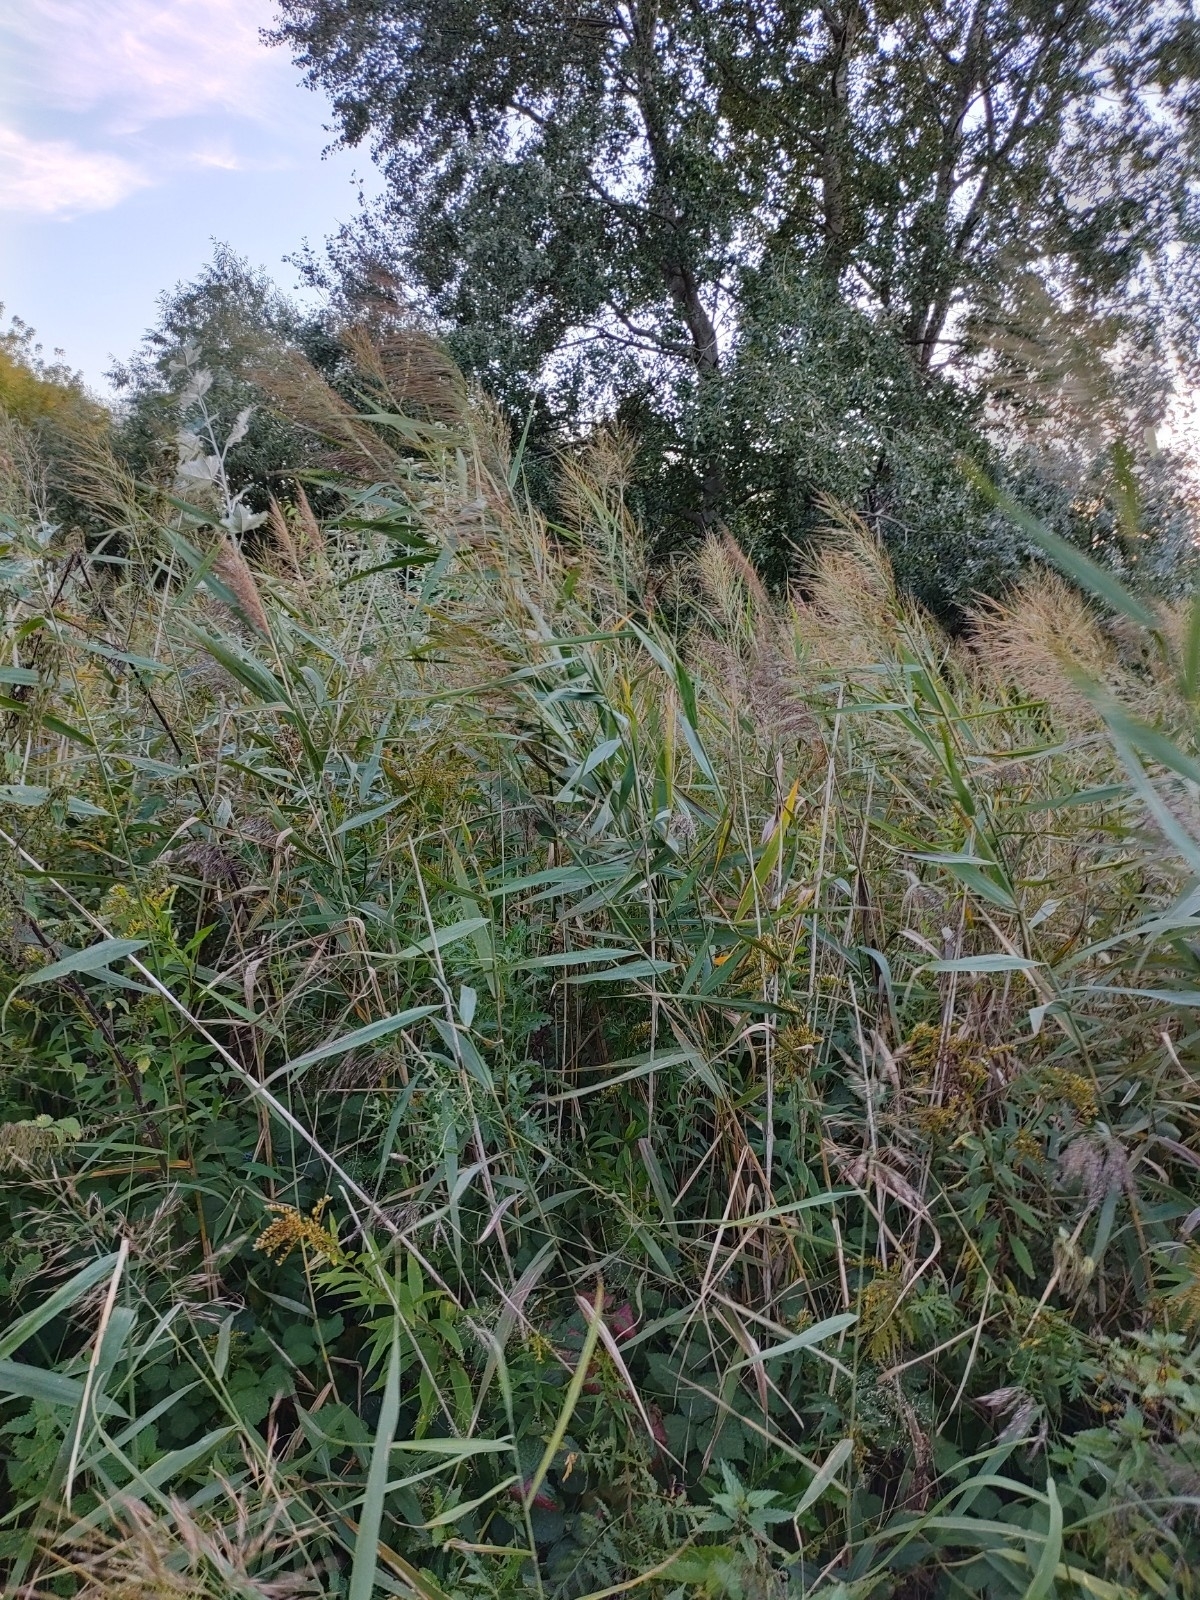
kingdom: Plantae
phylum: Tracheophyta
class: Liliopsida
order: Poales
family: Poaceae
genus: Phragmites
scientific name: Phragmites australis
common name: Common reed
